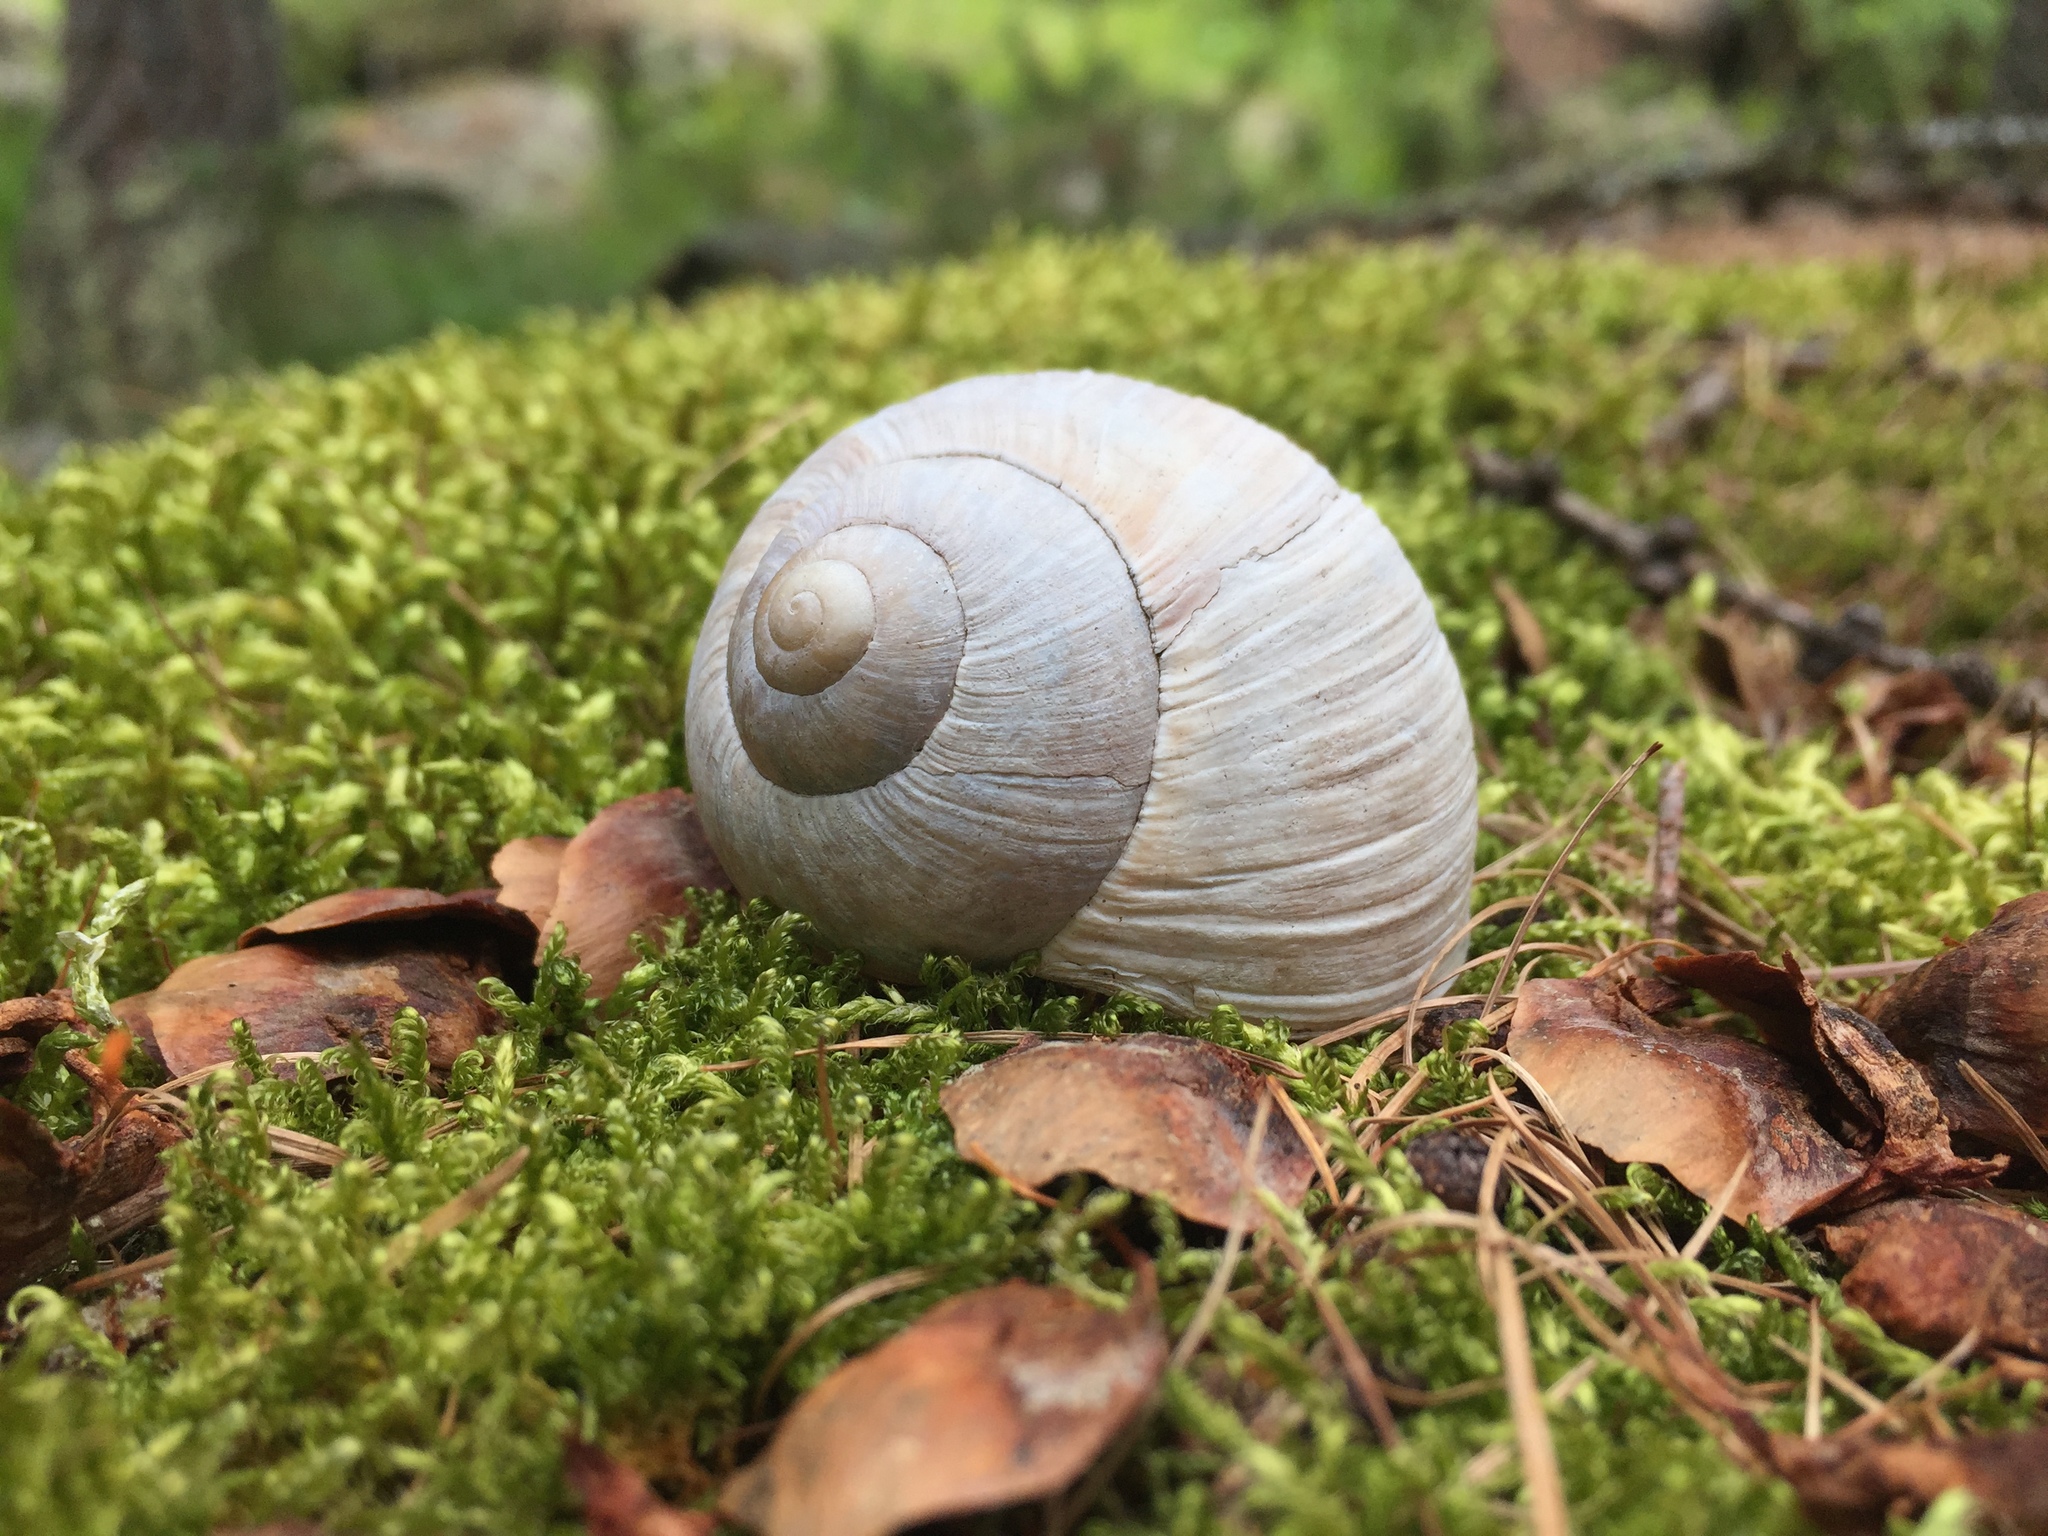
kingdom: Animalia
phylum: Mollusca
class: Gastropoda
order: Stylommatophora
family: Helicidae
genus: Helix
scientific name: Helix pomatia
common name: Roman snail
